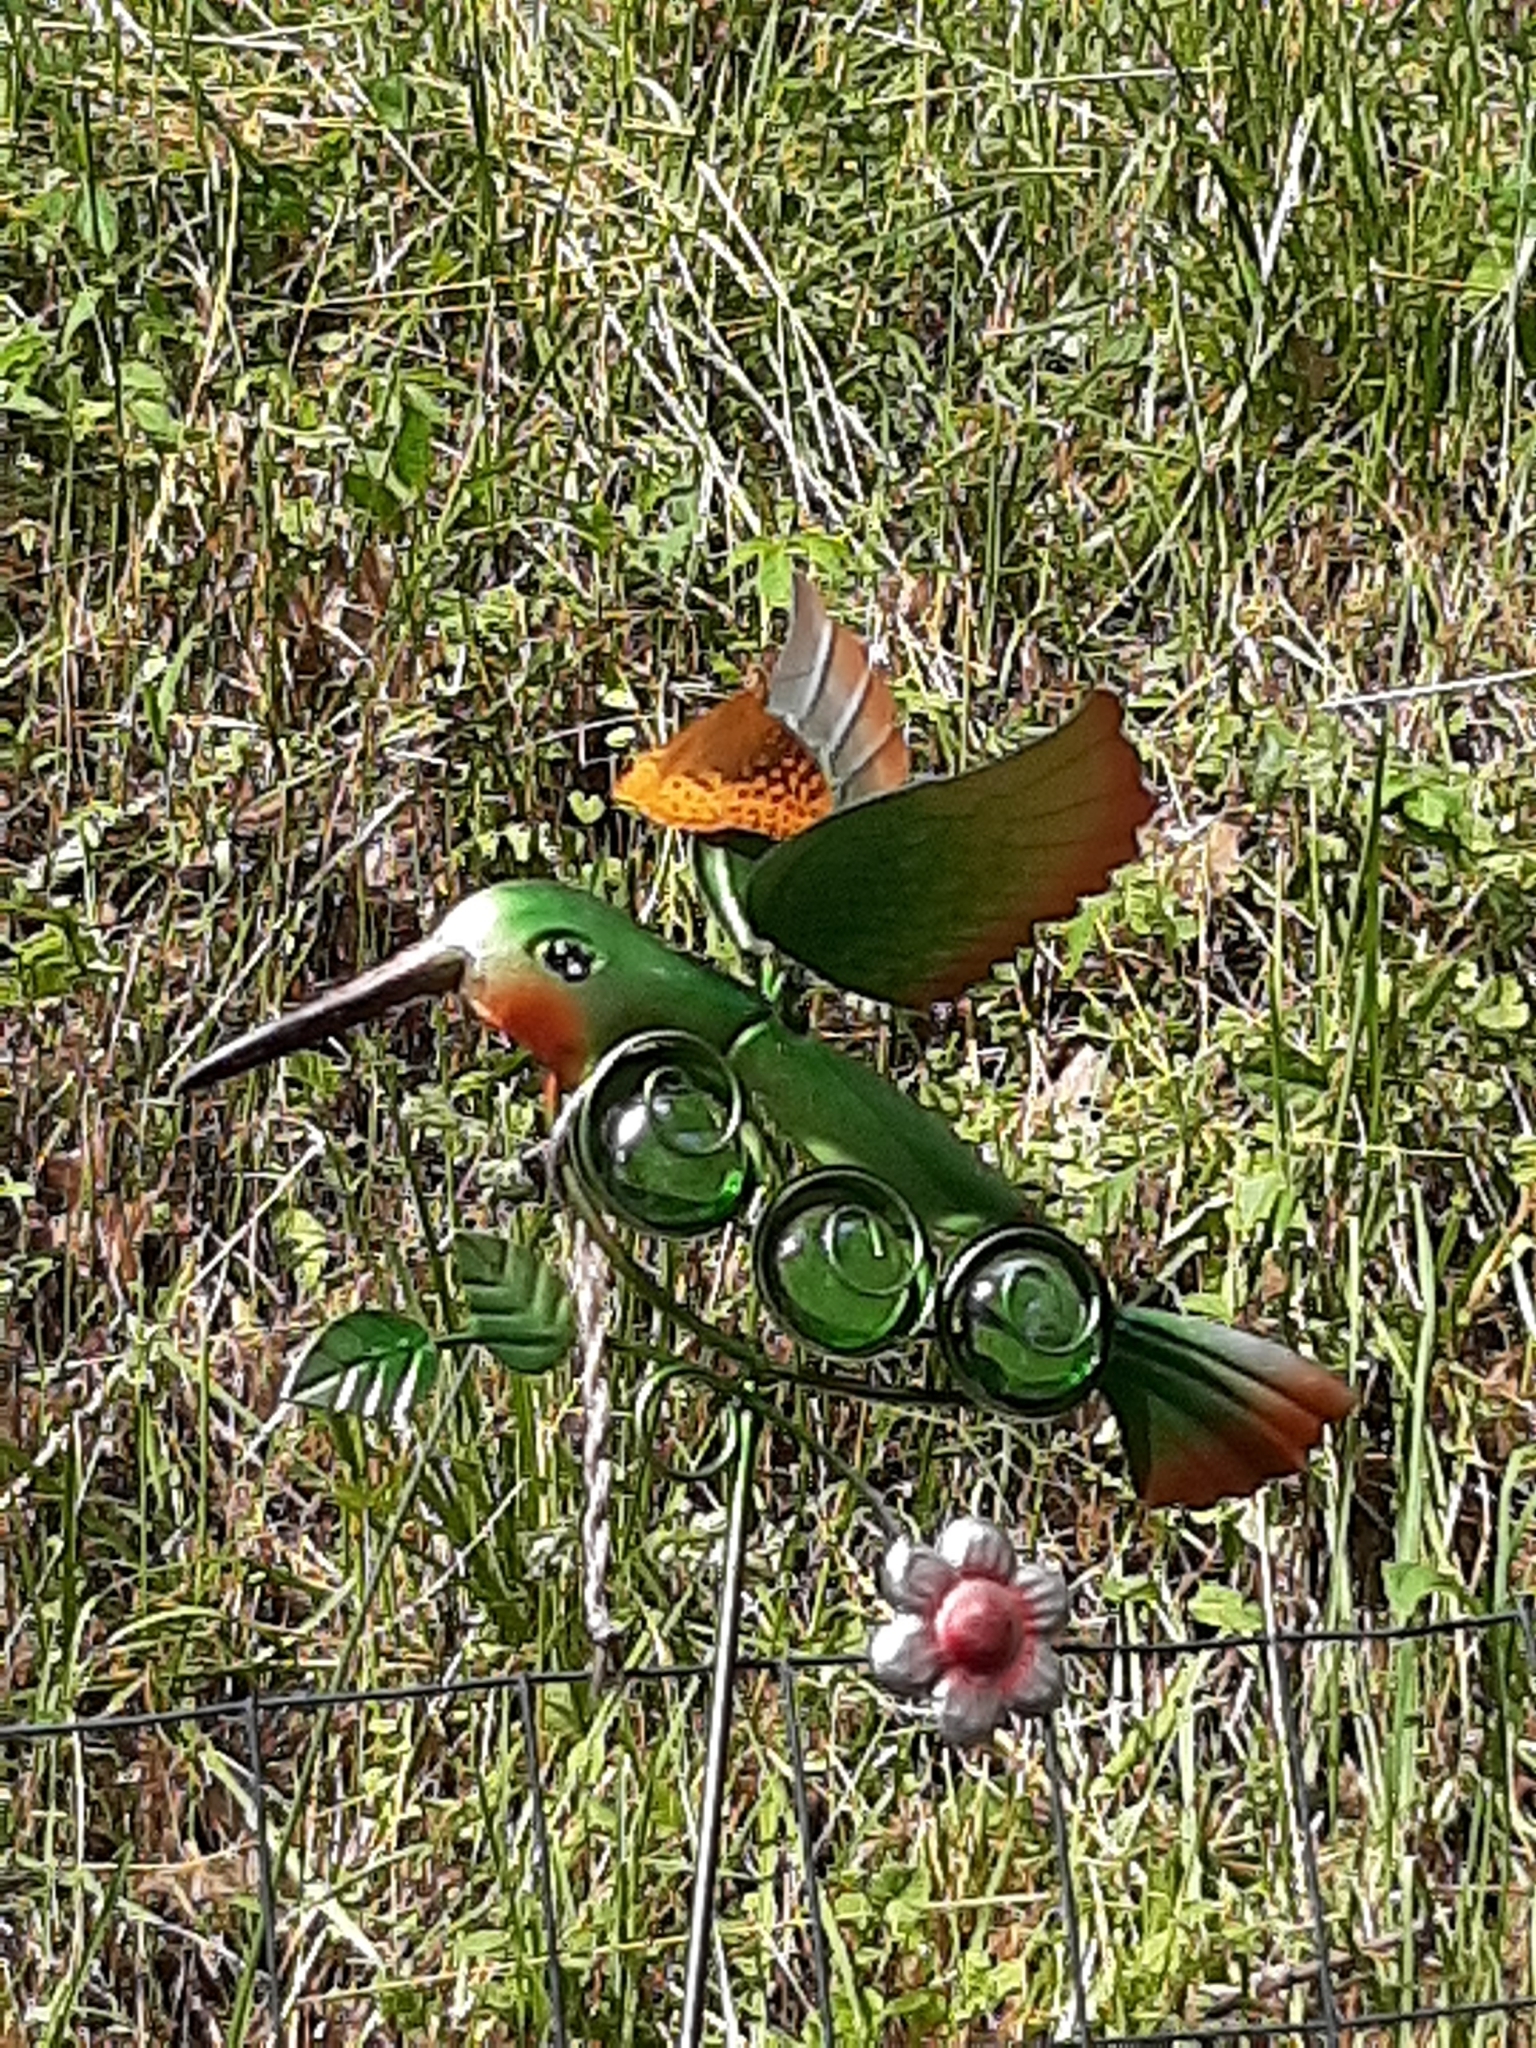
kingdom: Animalia
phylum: Arthropoda
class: Insecta
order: Lepidoptera
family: Nymphalidae
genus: Speyeria
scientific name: Speyeria cybele
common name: Great spangled fritillary
